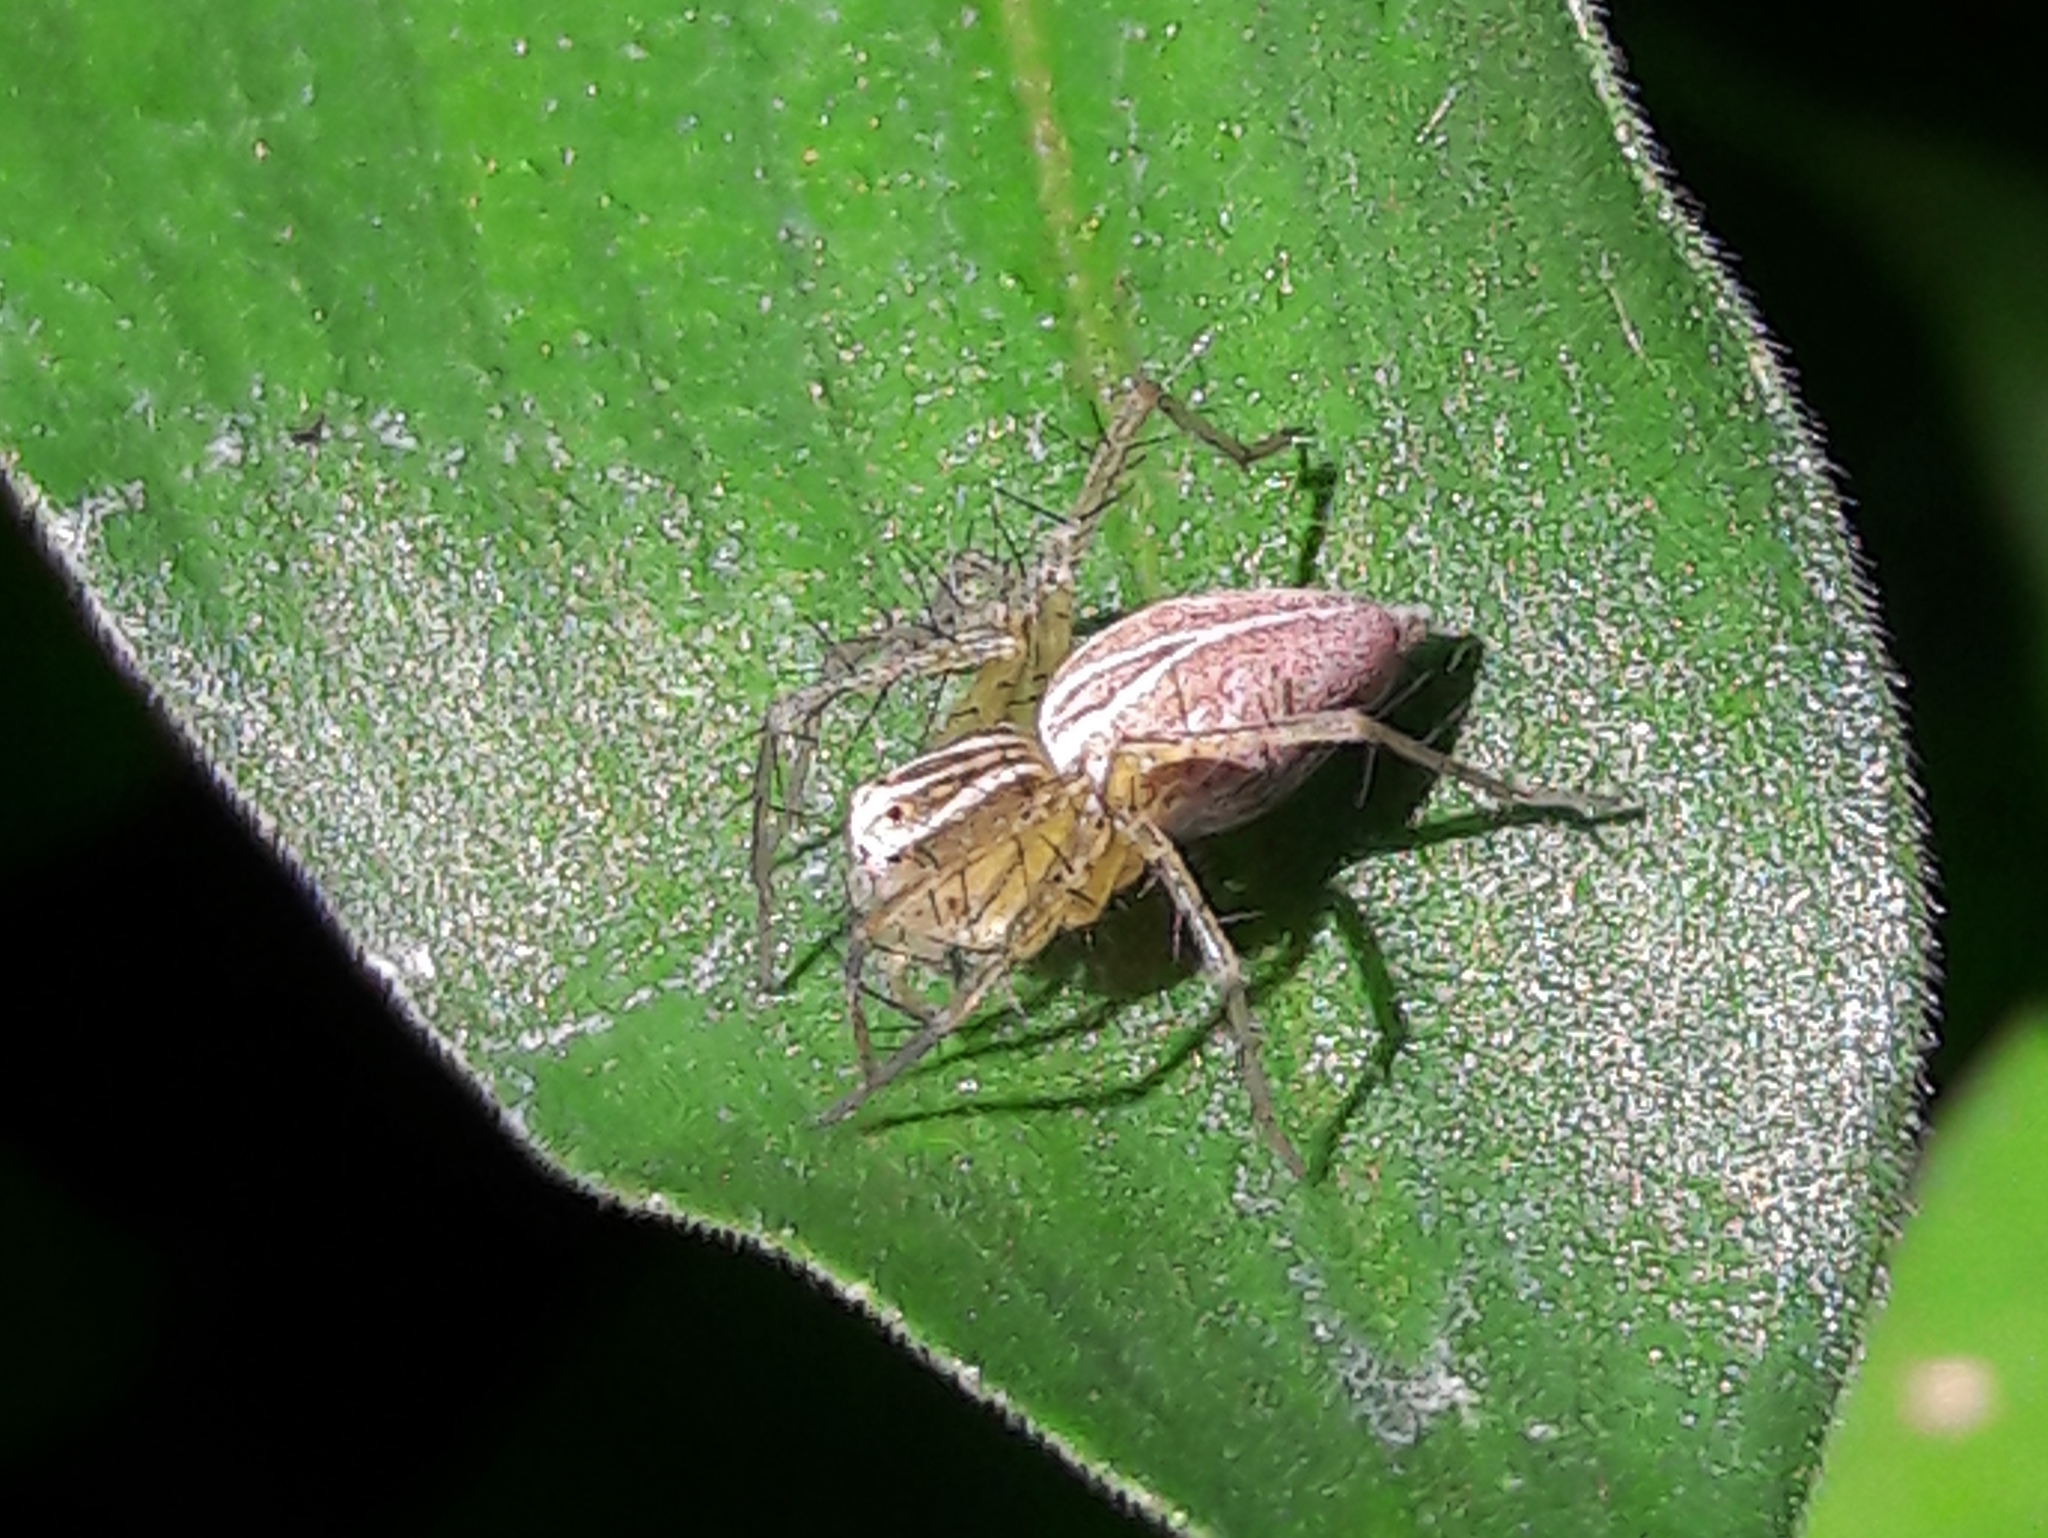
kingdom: Animalia
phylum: Arthropoda
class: Arachnida
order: Araneae
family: Oxyopidae
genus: Oxyopes
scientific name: Oxyopes salticus
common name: Lynx spiders
